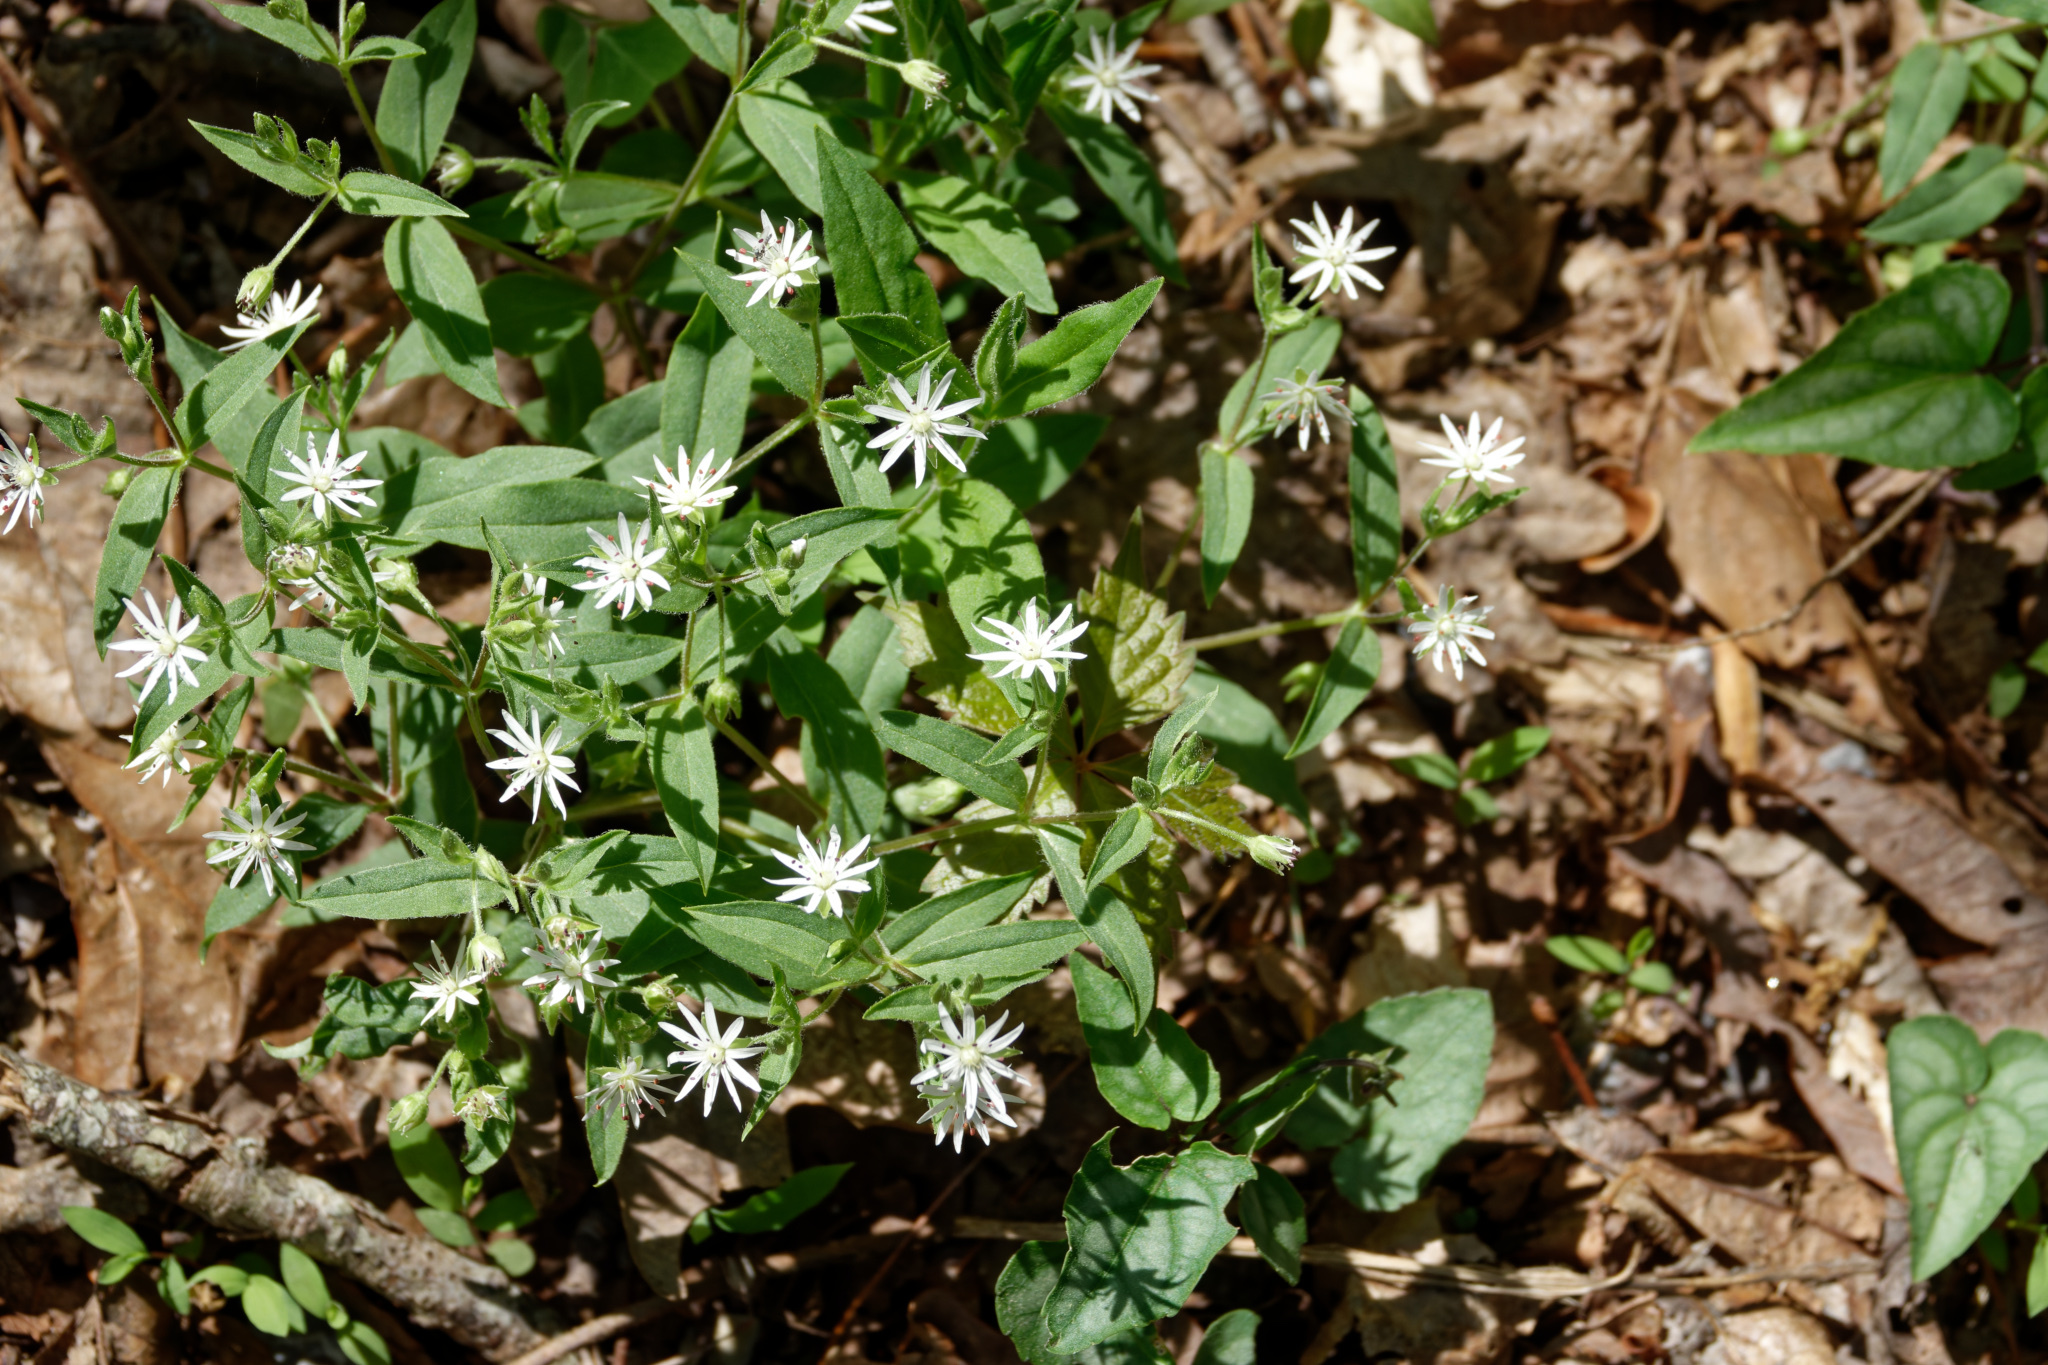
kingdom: Plantae
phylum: Tracheophyta
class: Magnoliopsida
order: Caryophyllales
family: Caryophyllaceae
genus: Stellaria
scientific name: Stellaria pubera
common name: Star chickweed
